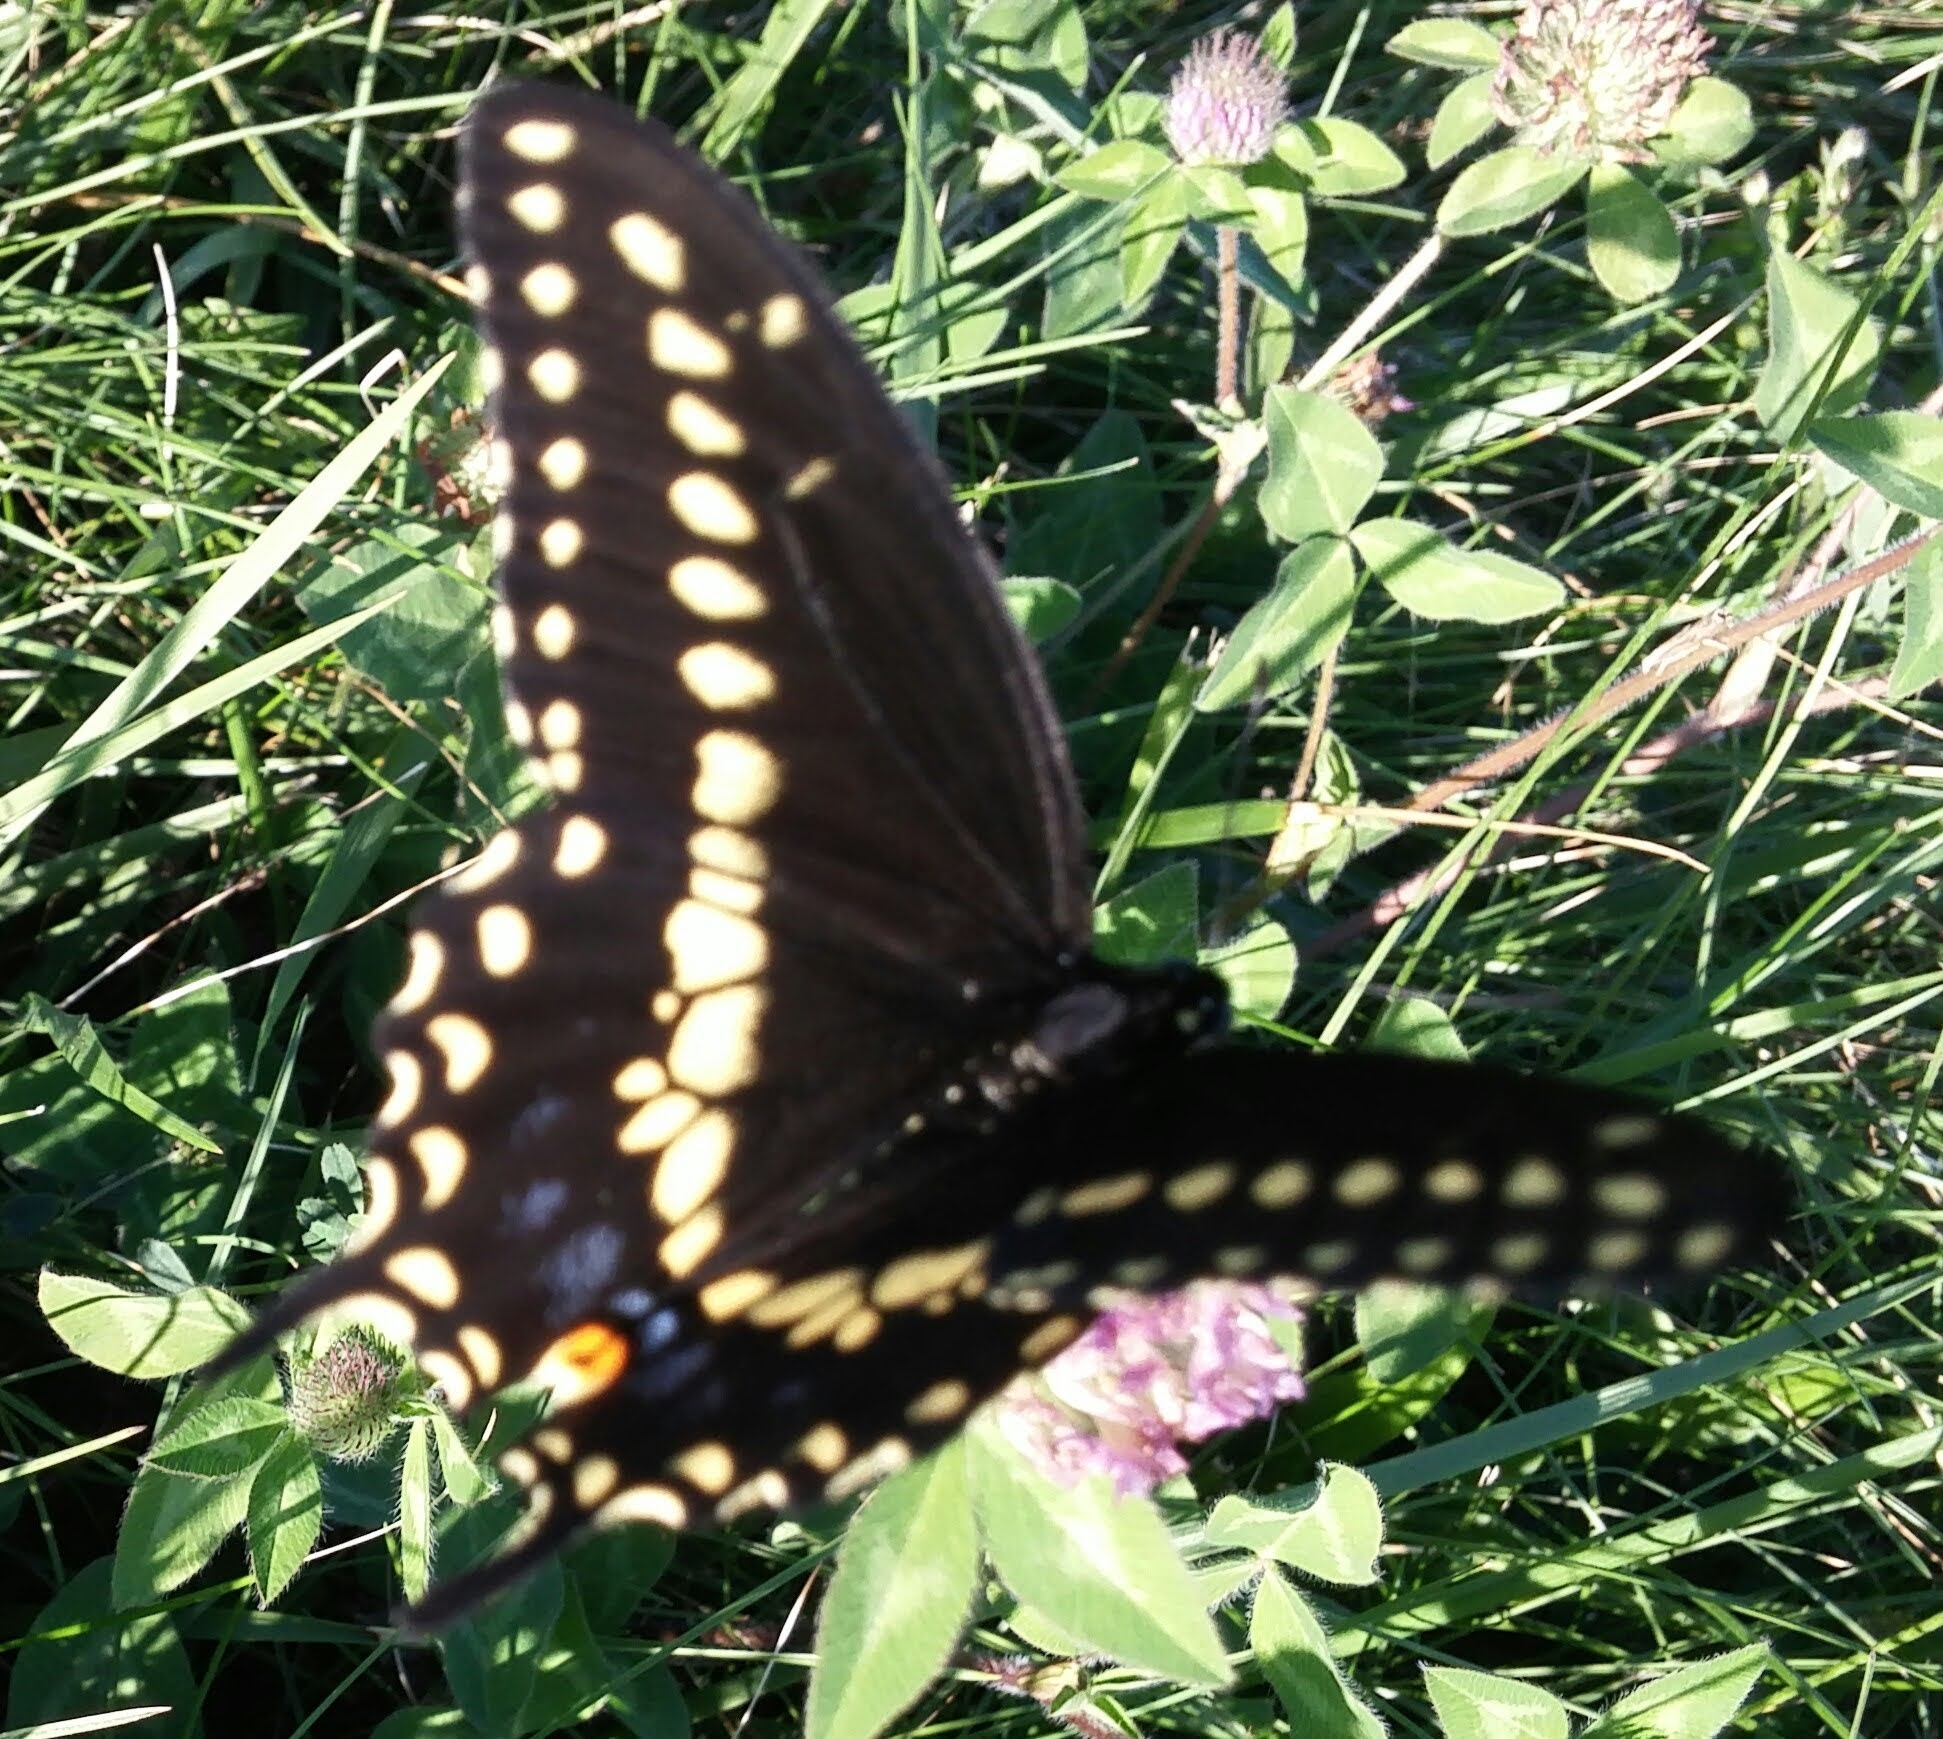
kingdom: Animalia
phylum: Arthropoda
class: Insecta
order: Lepidoptera
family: Papilionidae
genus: Papilio
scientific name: Papilio polyxenes
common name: Black swallowtail
